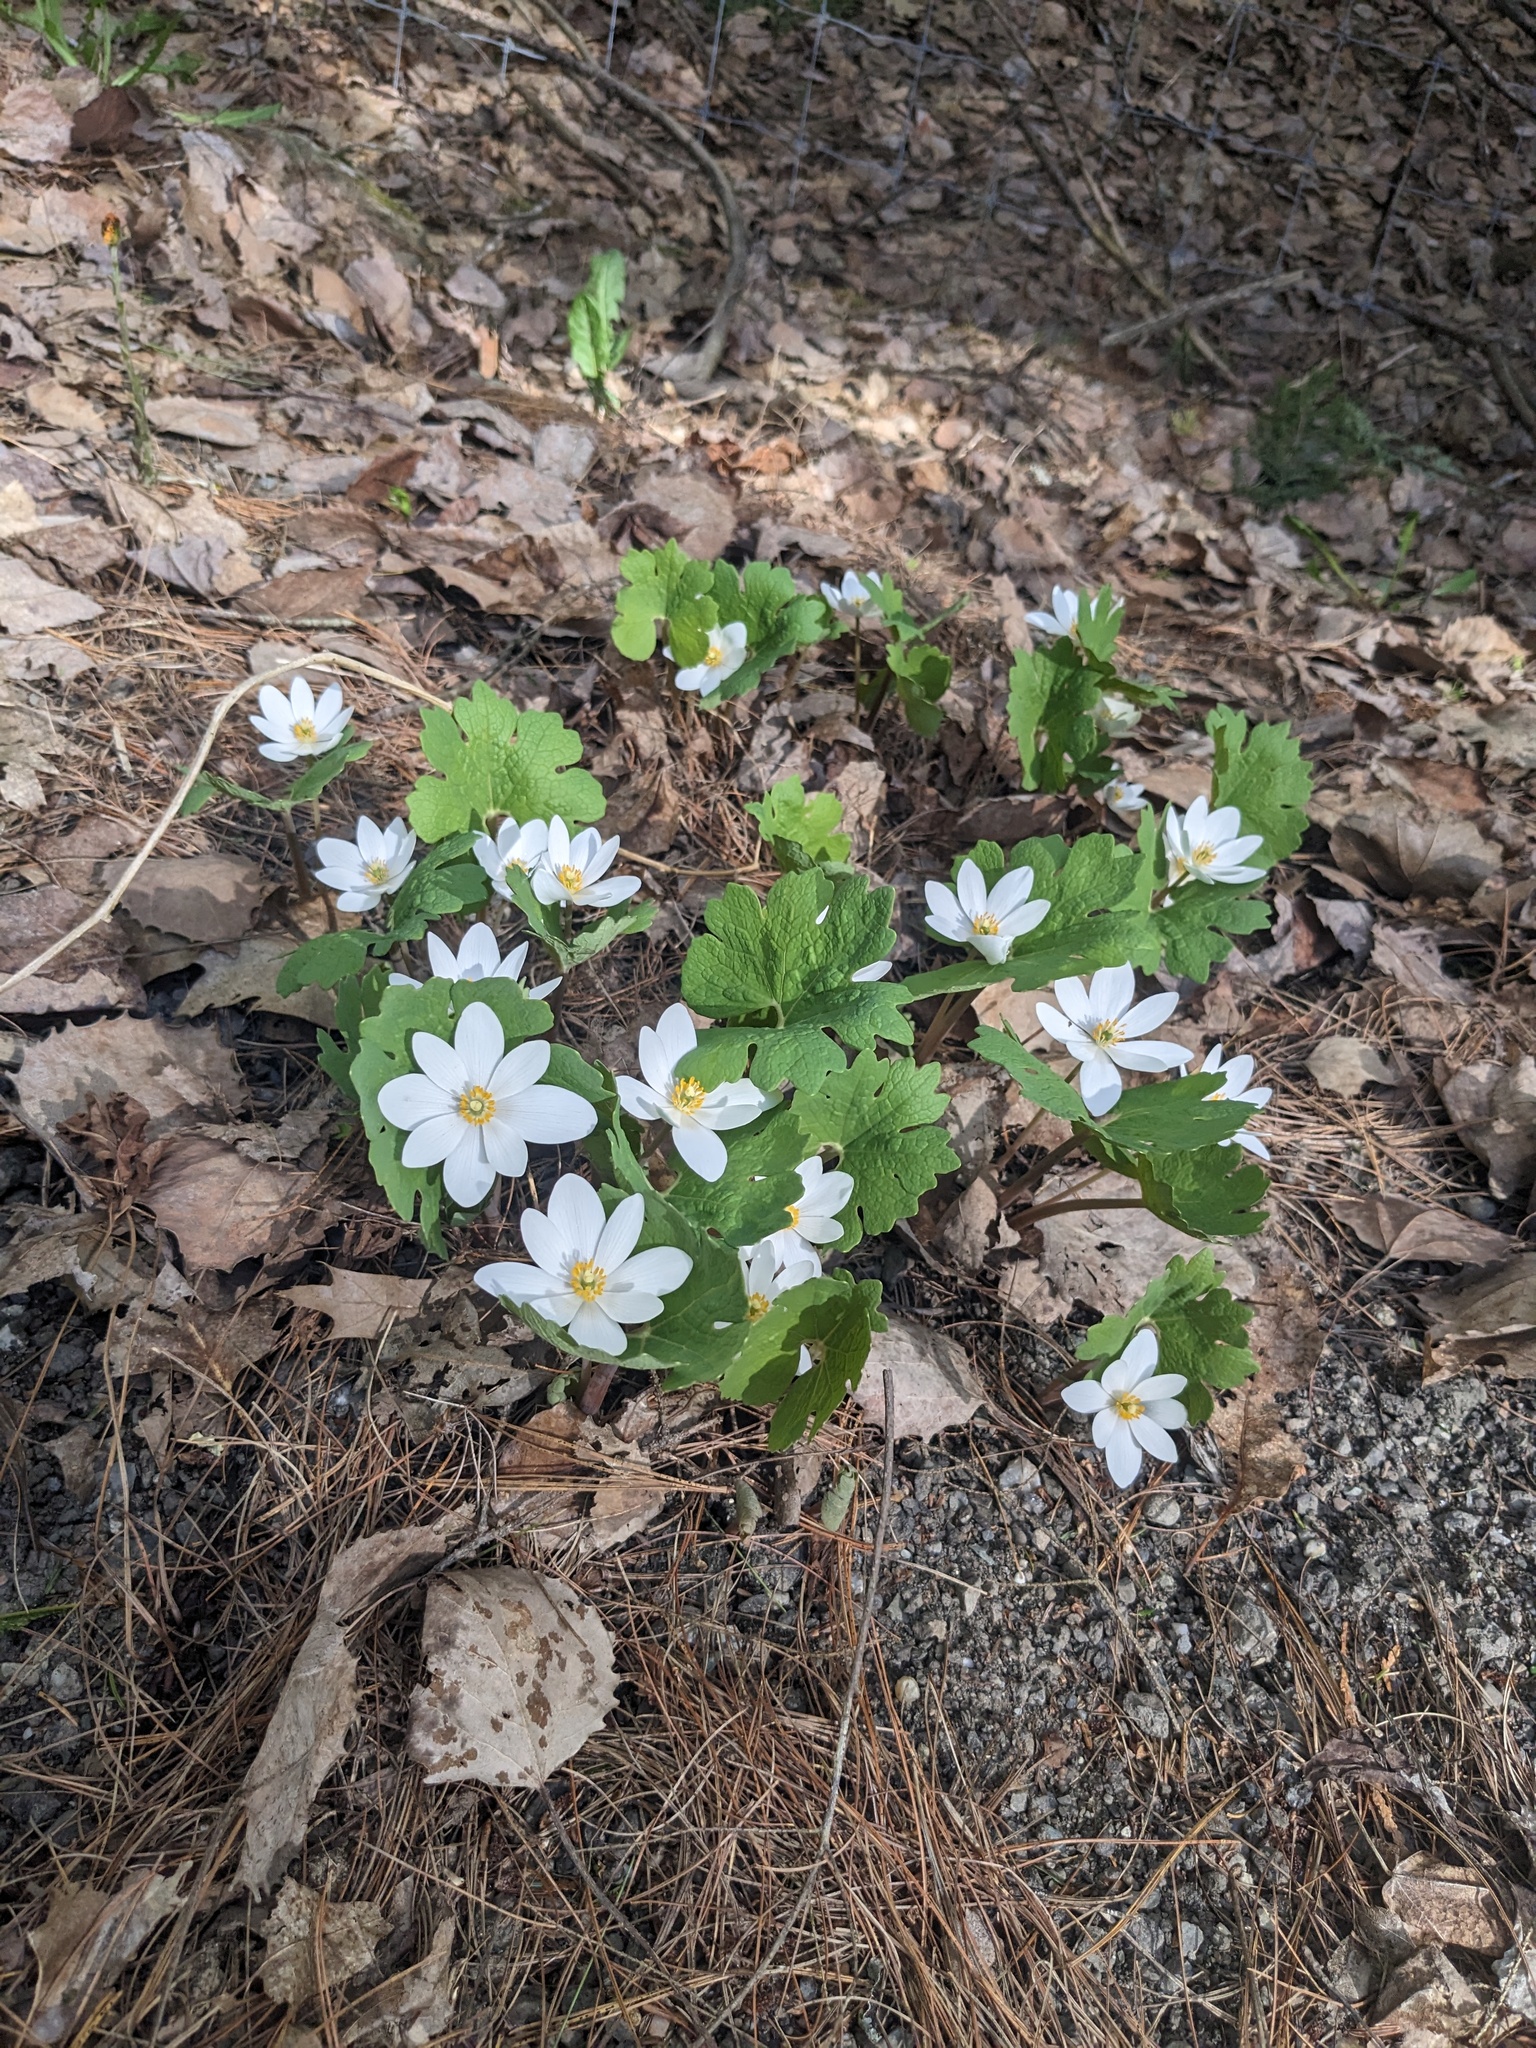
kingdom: Plantae
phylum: Tracheophyta
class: Magnoliopsida
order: Ranunculales
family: Papaveraceae
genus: Sanguinaria
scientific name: Sanguinaria canadensis
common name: Bloodroot
